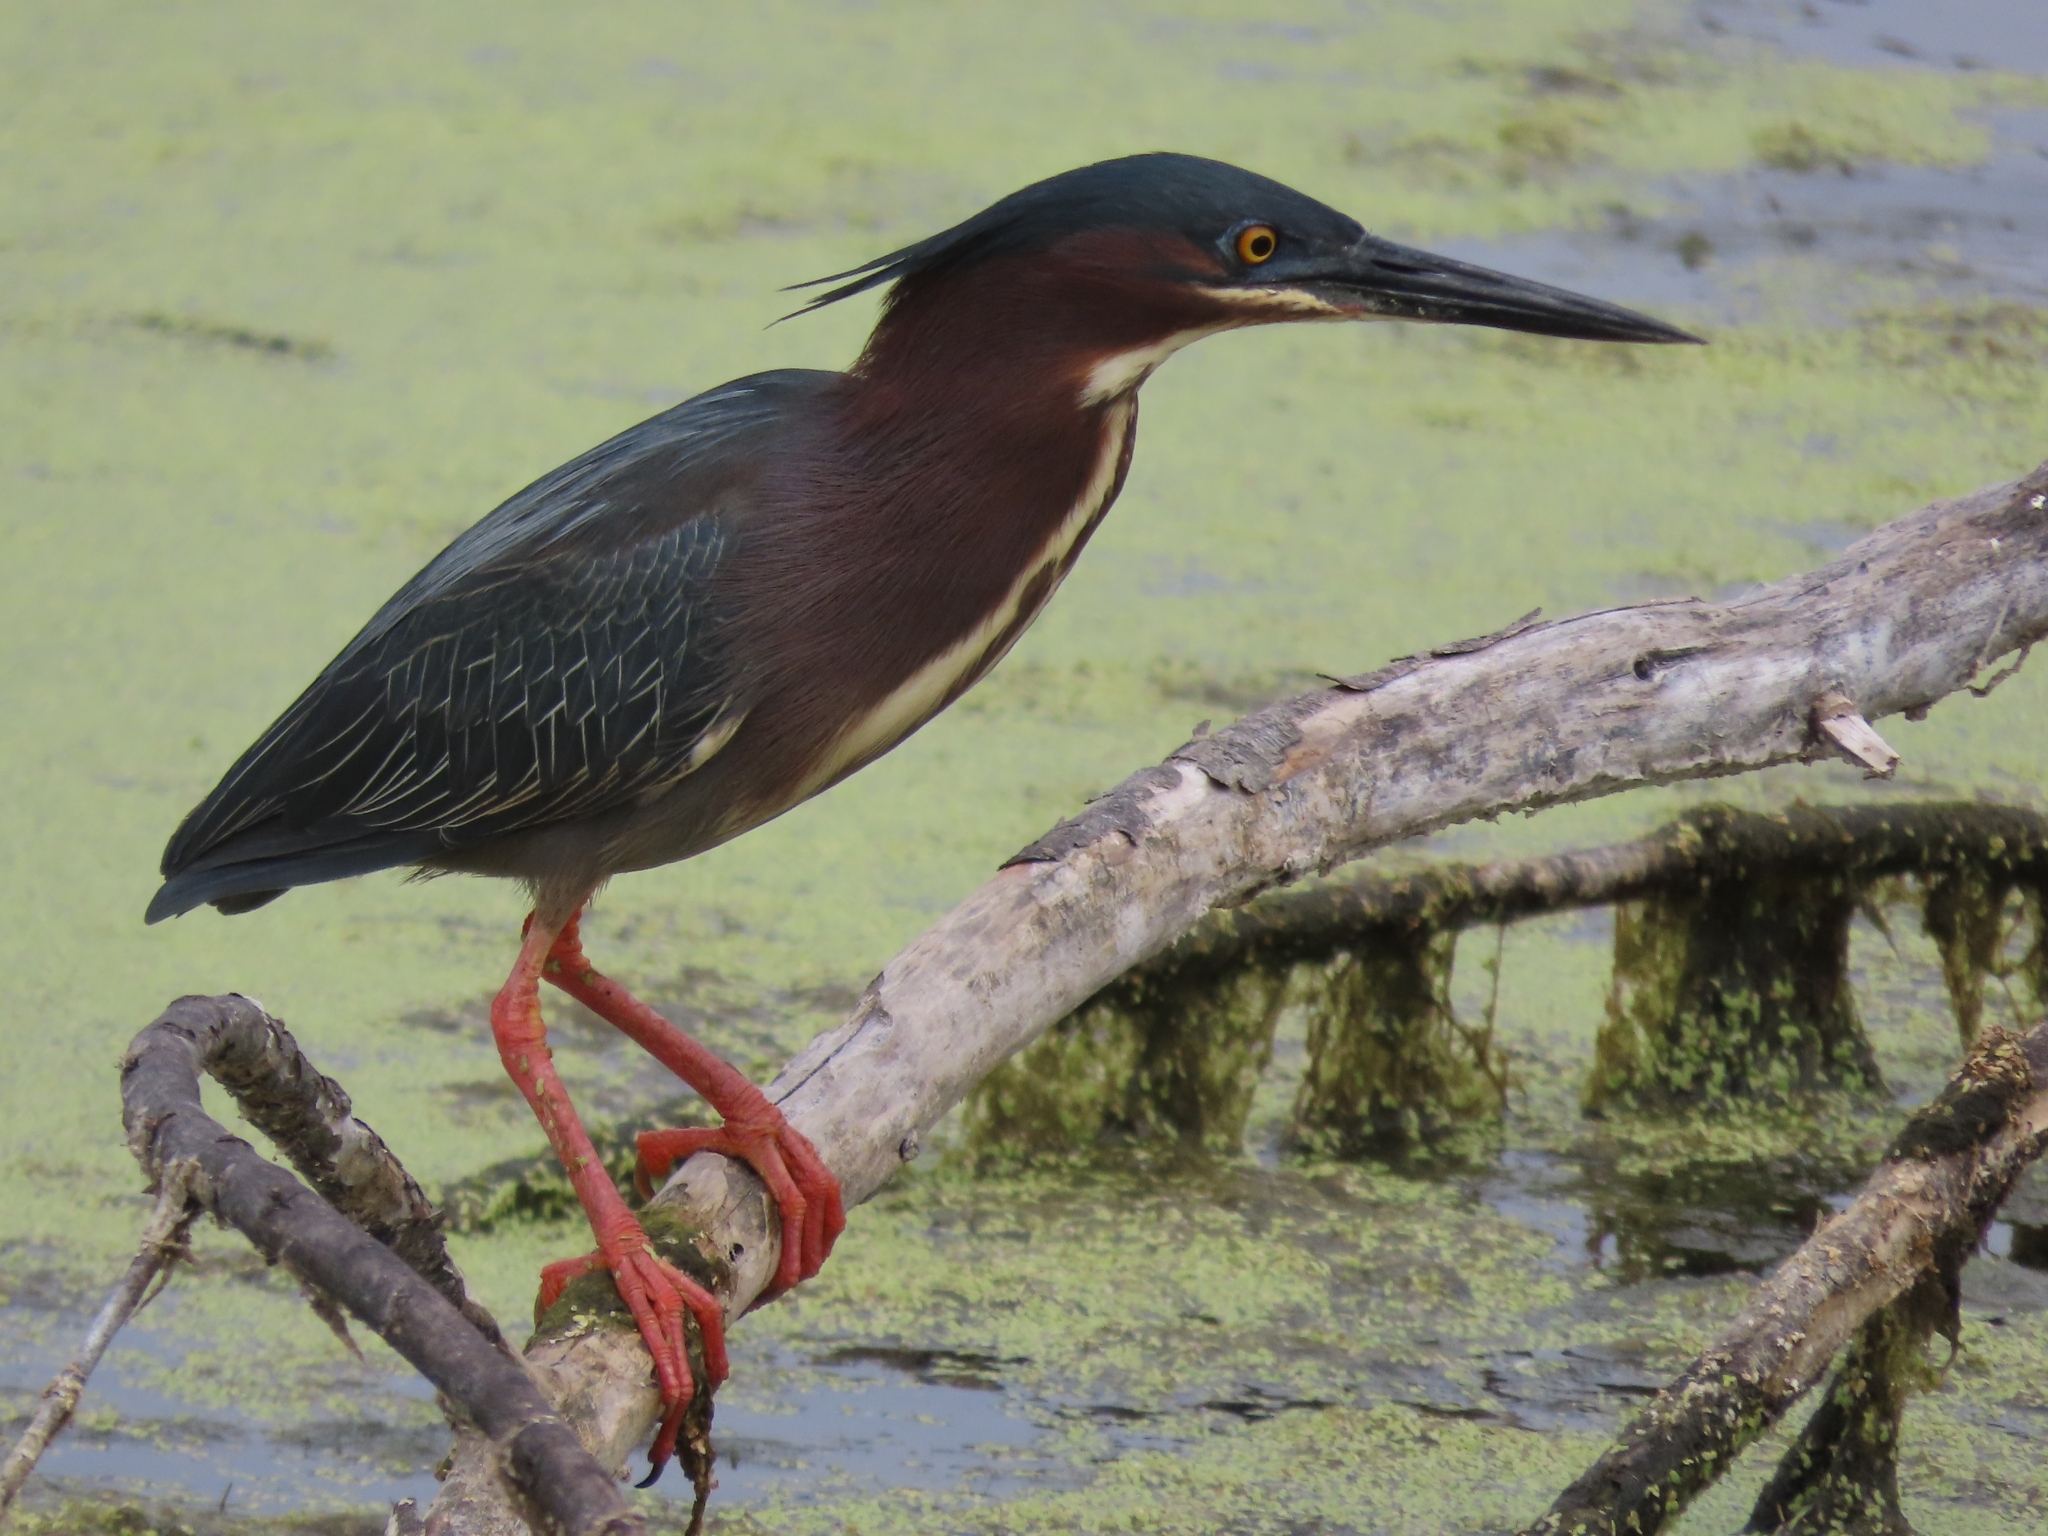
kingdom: Animalia
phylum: Chordata
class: Aves
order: Pelecaniformes
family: Ardeidae
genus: Butorides
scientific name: Butorides virescens
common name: Green heron
